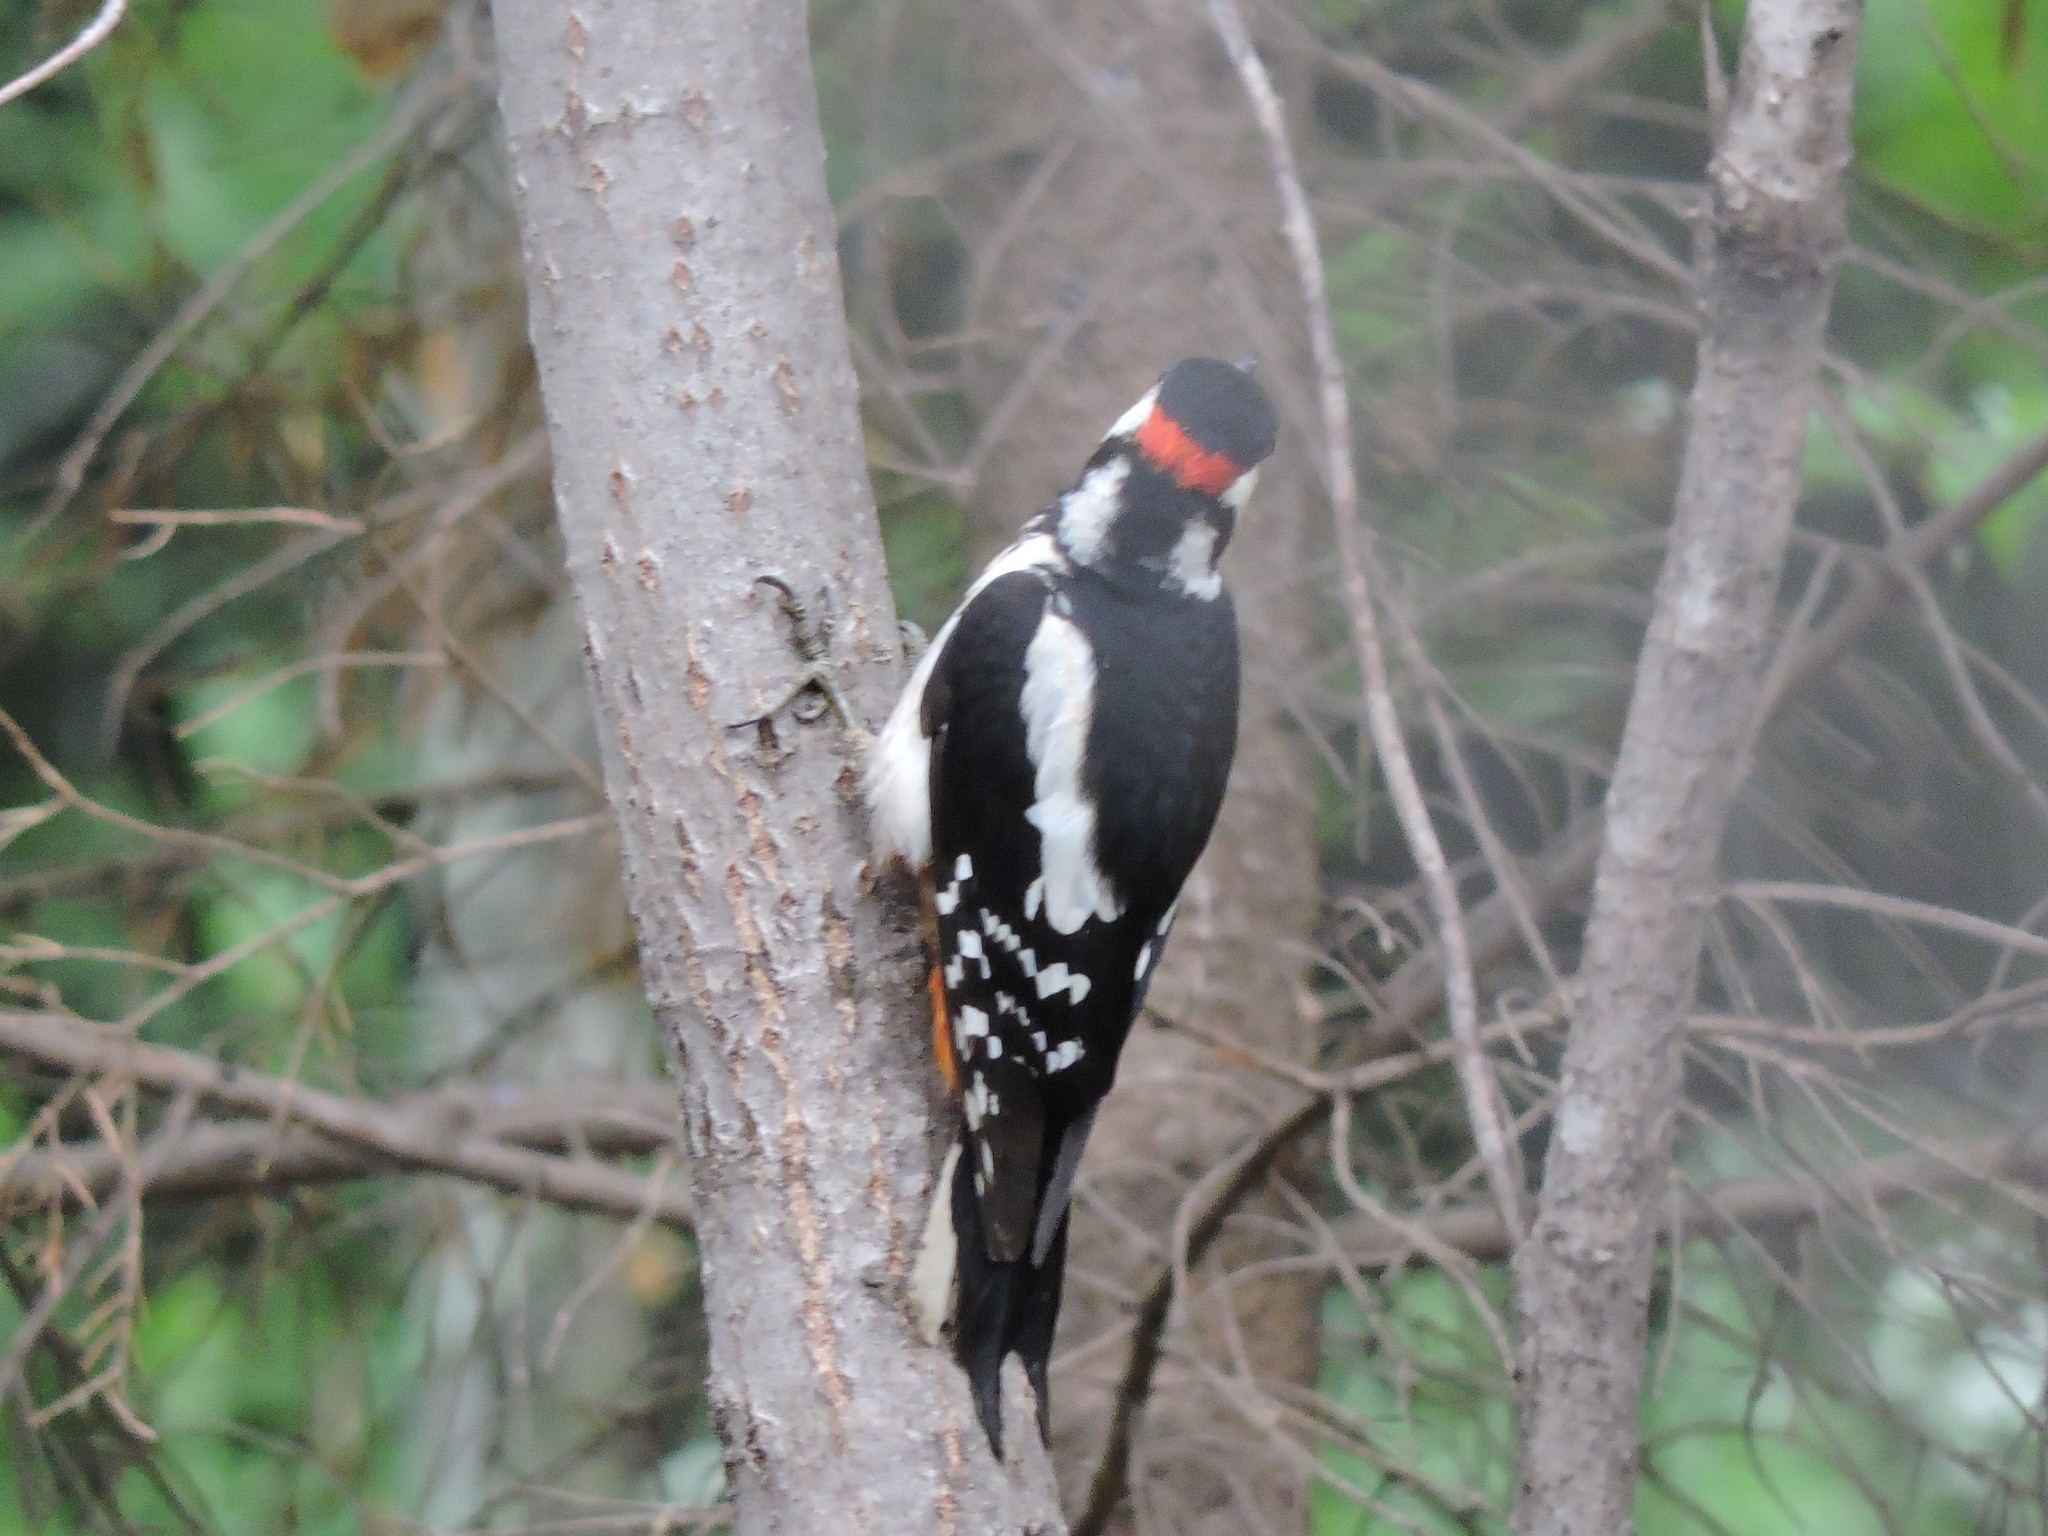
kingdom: Animalia
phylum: Chordata
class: Aves
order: Piciformes
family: Picidae
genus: Dendrocopos
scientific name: Dendrocopos major
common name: Great spotted woodpecker
